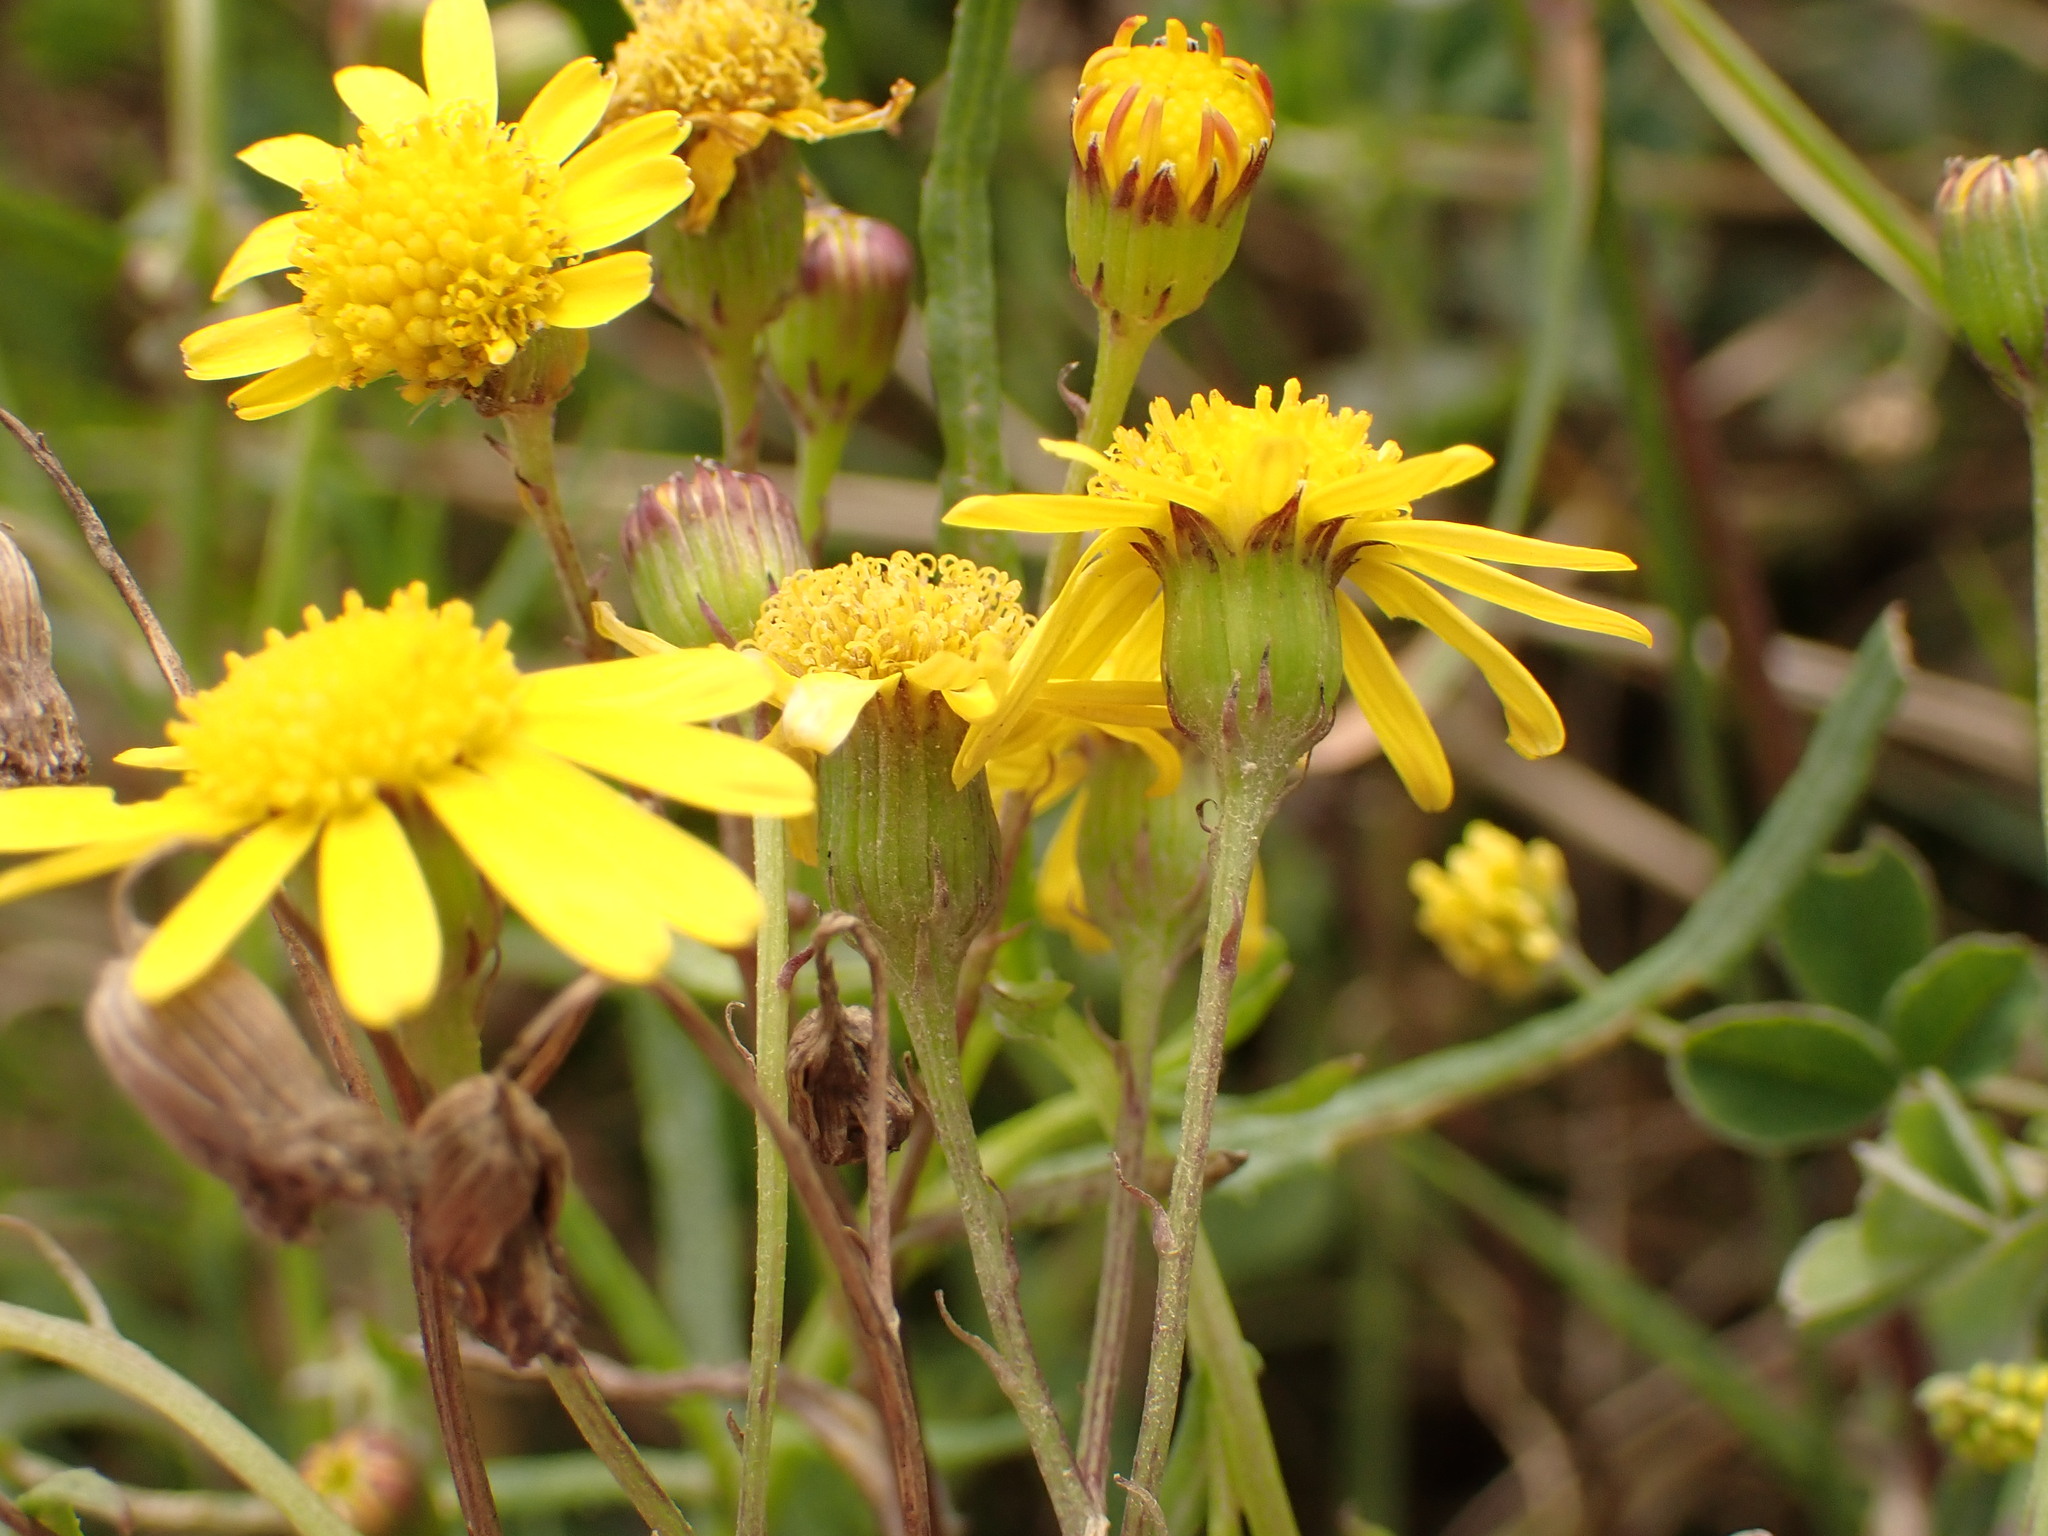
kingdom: Plantae
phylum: Tracheophyta
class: Magnoliopsida
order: Asterales
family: Asteraceae
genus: Senecio
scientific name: Senecio madagascariensis
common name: Madagascar ragwort
